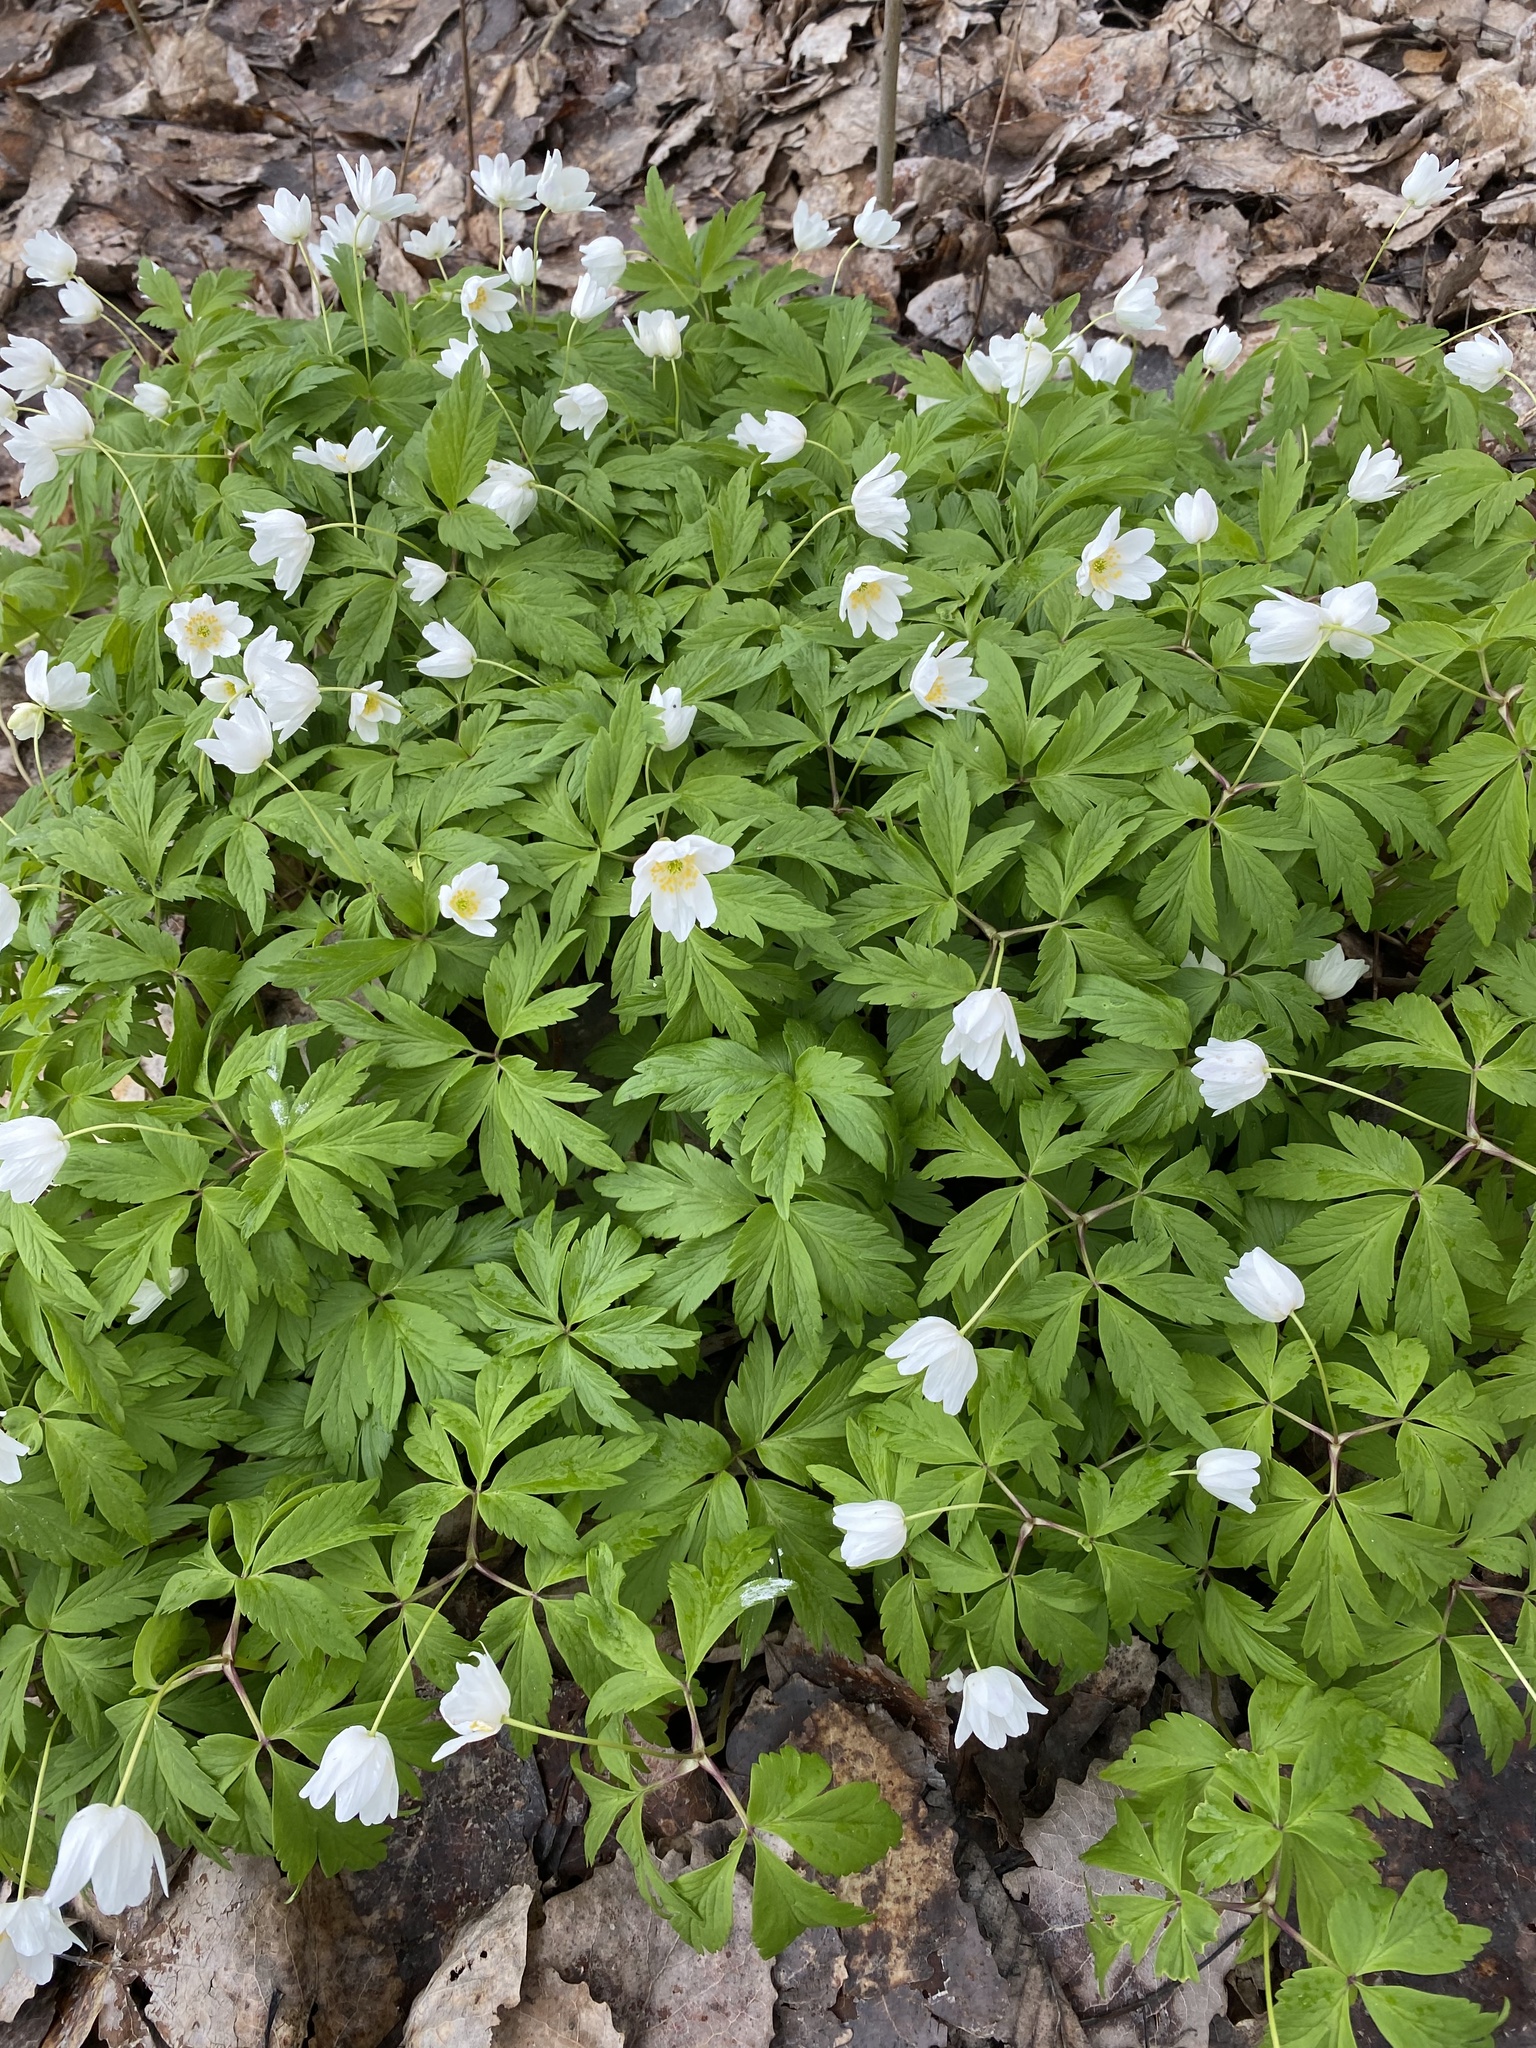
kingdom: Plantae
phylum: Tracheophyta
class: Magnoliopsida
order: Ranunculales
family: Ranunculaceae
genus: Anemone
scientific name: Anemone nemorosa
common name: Wood anemone
